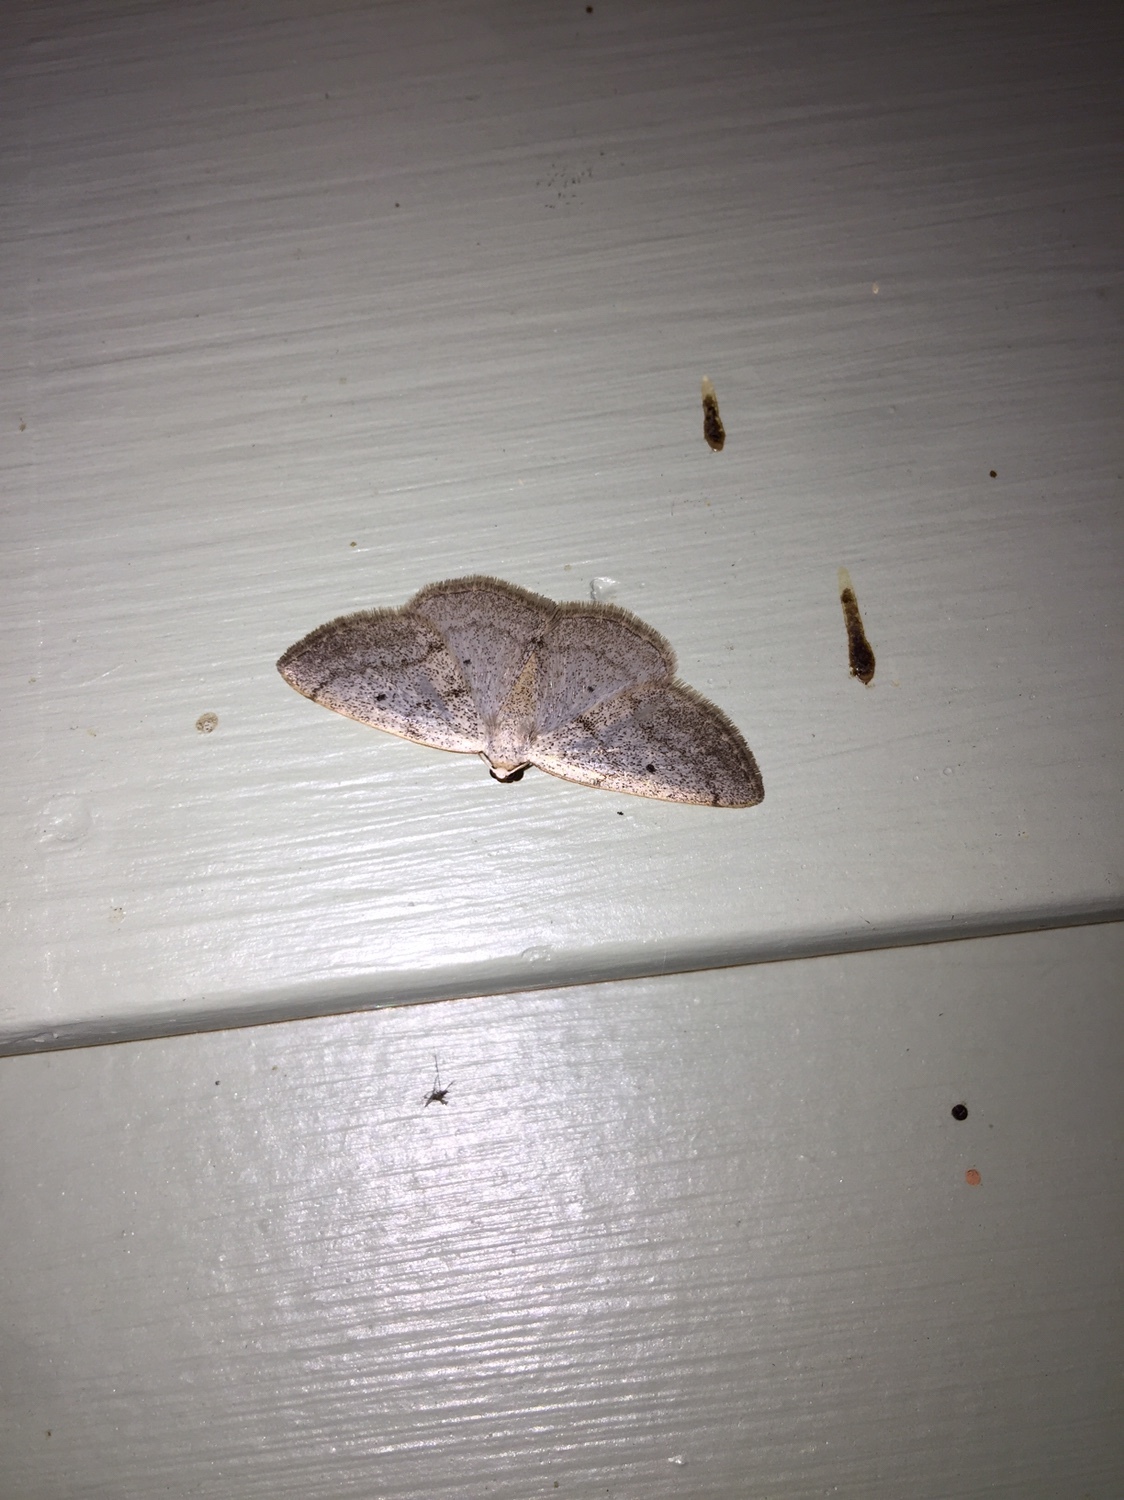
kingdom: Animalia
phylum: Arthropoda
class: Insecta
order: Lepidoptera
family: Geometridae
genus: Lomographa
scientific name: Lomographa glomeraria
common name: Gray spring moth
